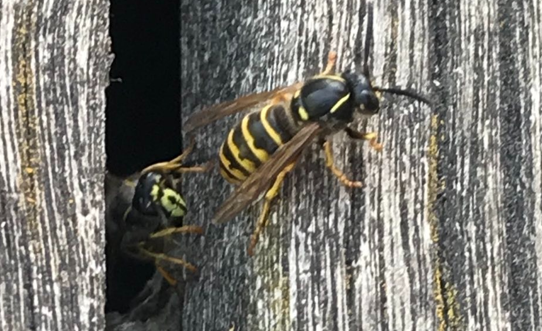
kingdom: Animalia
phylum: Arthropoda
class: Insecta
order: Hymenoptera
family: Vespidae
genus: Dolichovespula
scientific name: Dolichovespula saxonica
